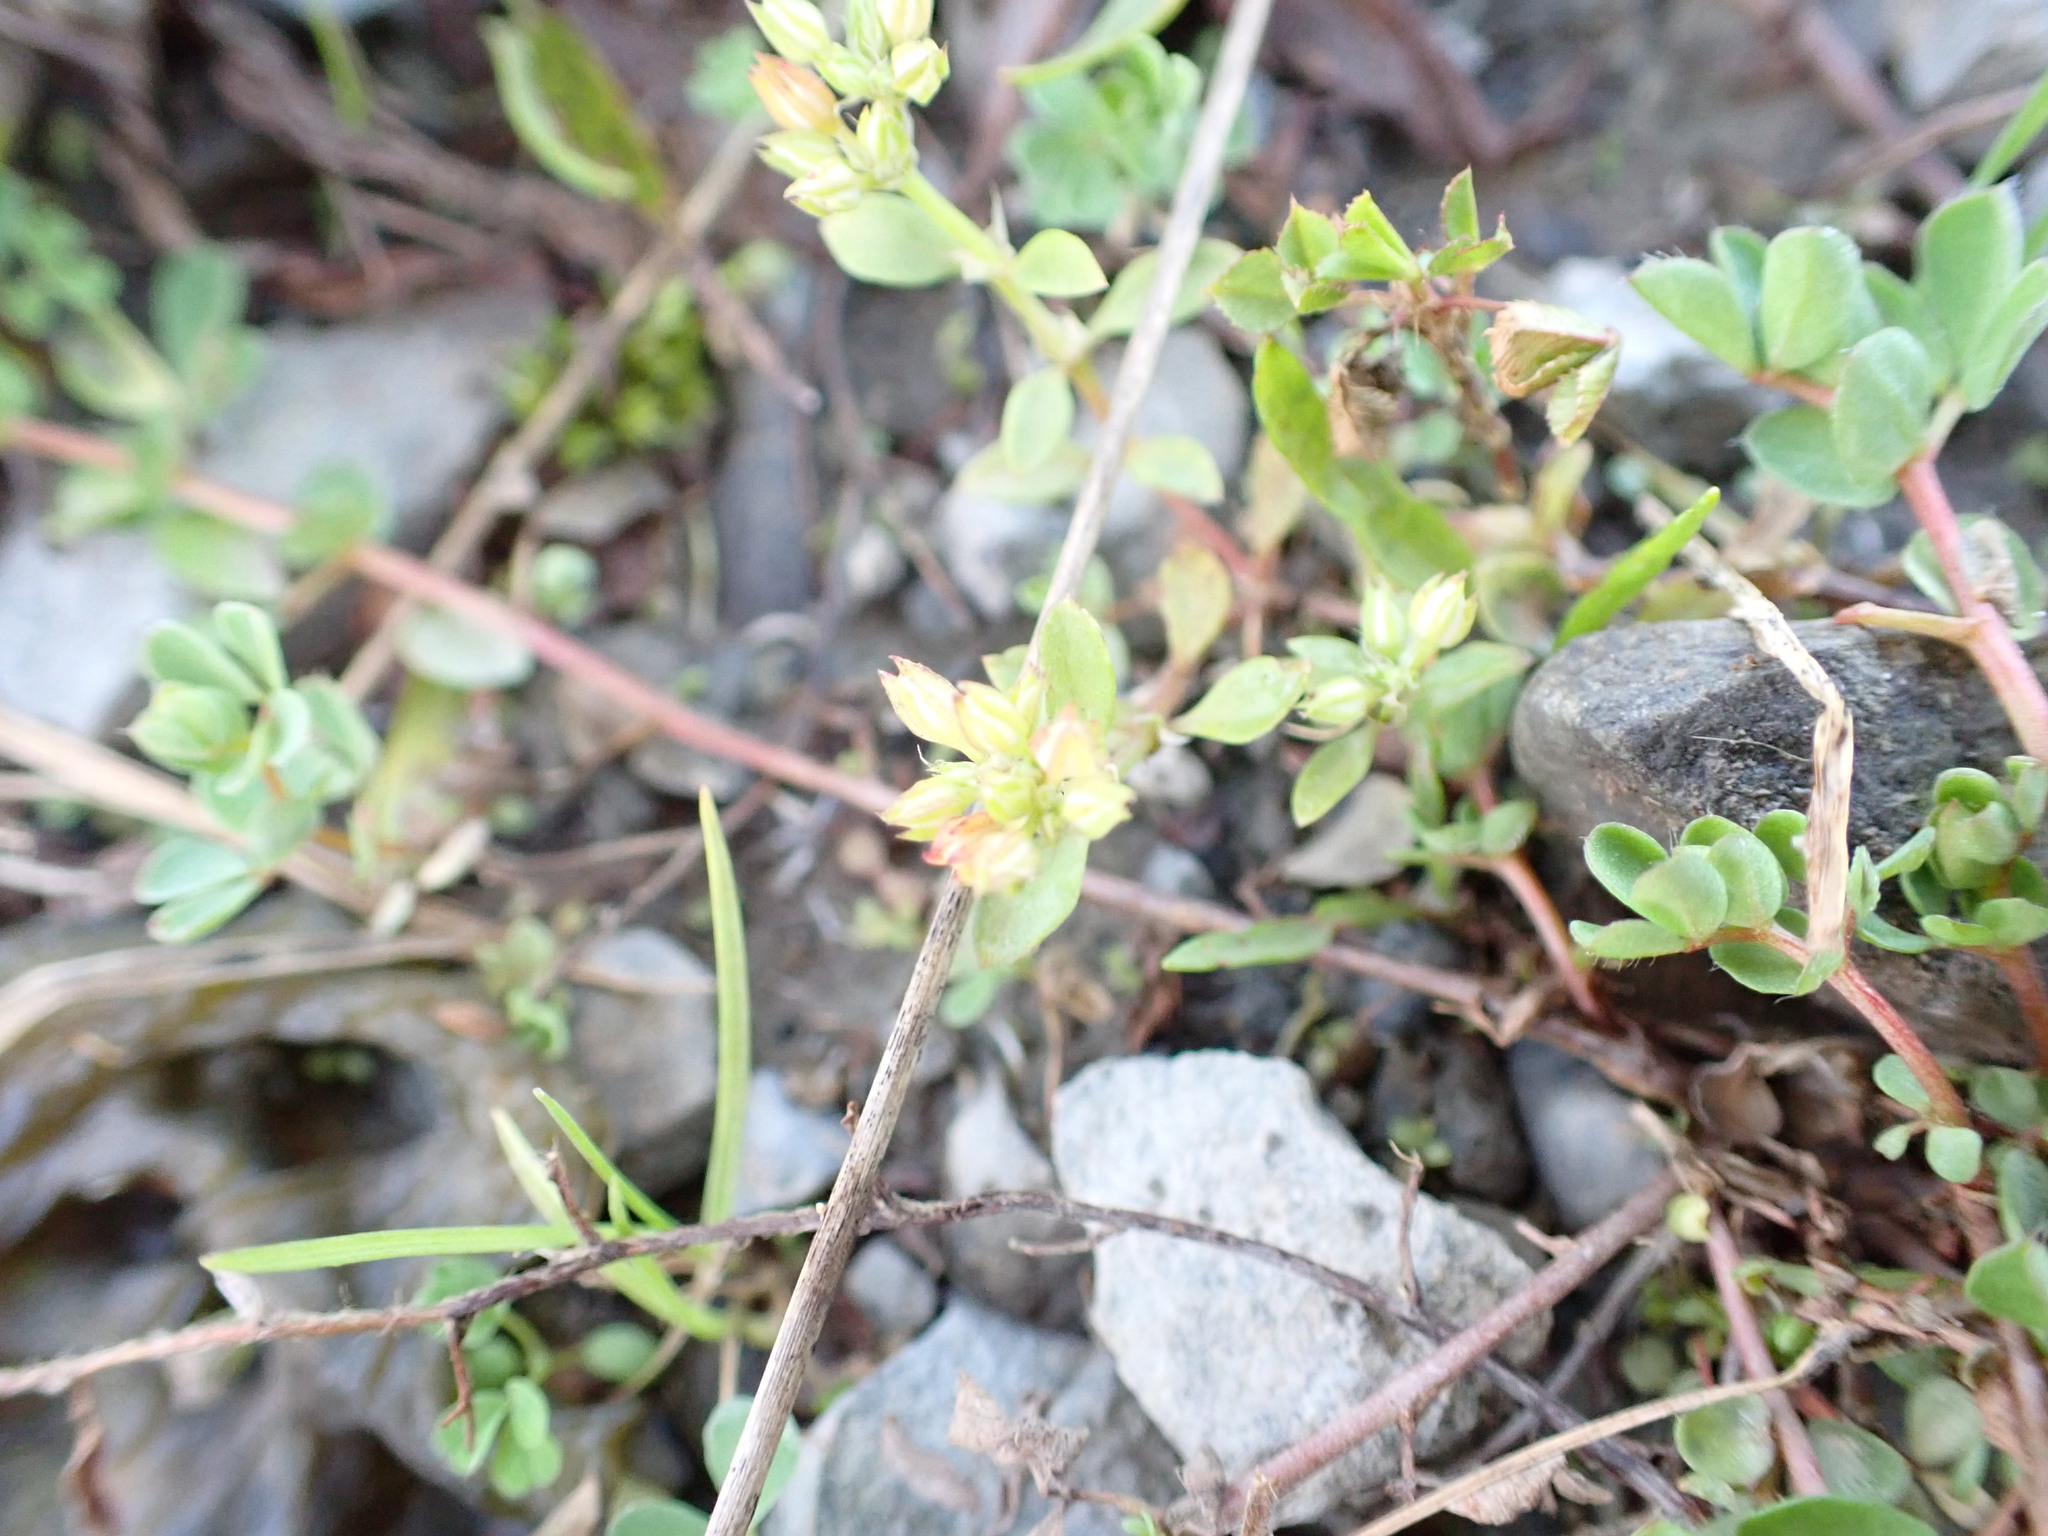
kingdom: Plantae
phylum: Tracheophyta
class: Magnoliopsida
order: Caryophyllales
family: Caryophyllaceae
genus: Polycarpon
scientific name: Polycarpon tetraphyllum
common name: Four-leaved all-seed
